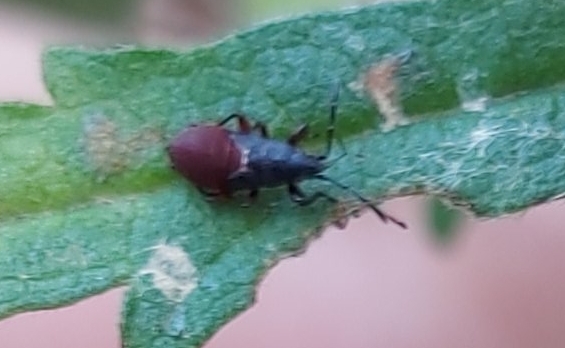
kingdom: Animalia
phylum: Arthropoda
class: Insecta
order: Hemiptera
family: Oxycarenidae
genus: Oxycarenus
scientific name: Oxycarenus lavaterae
